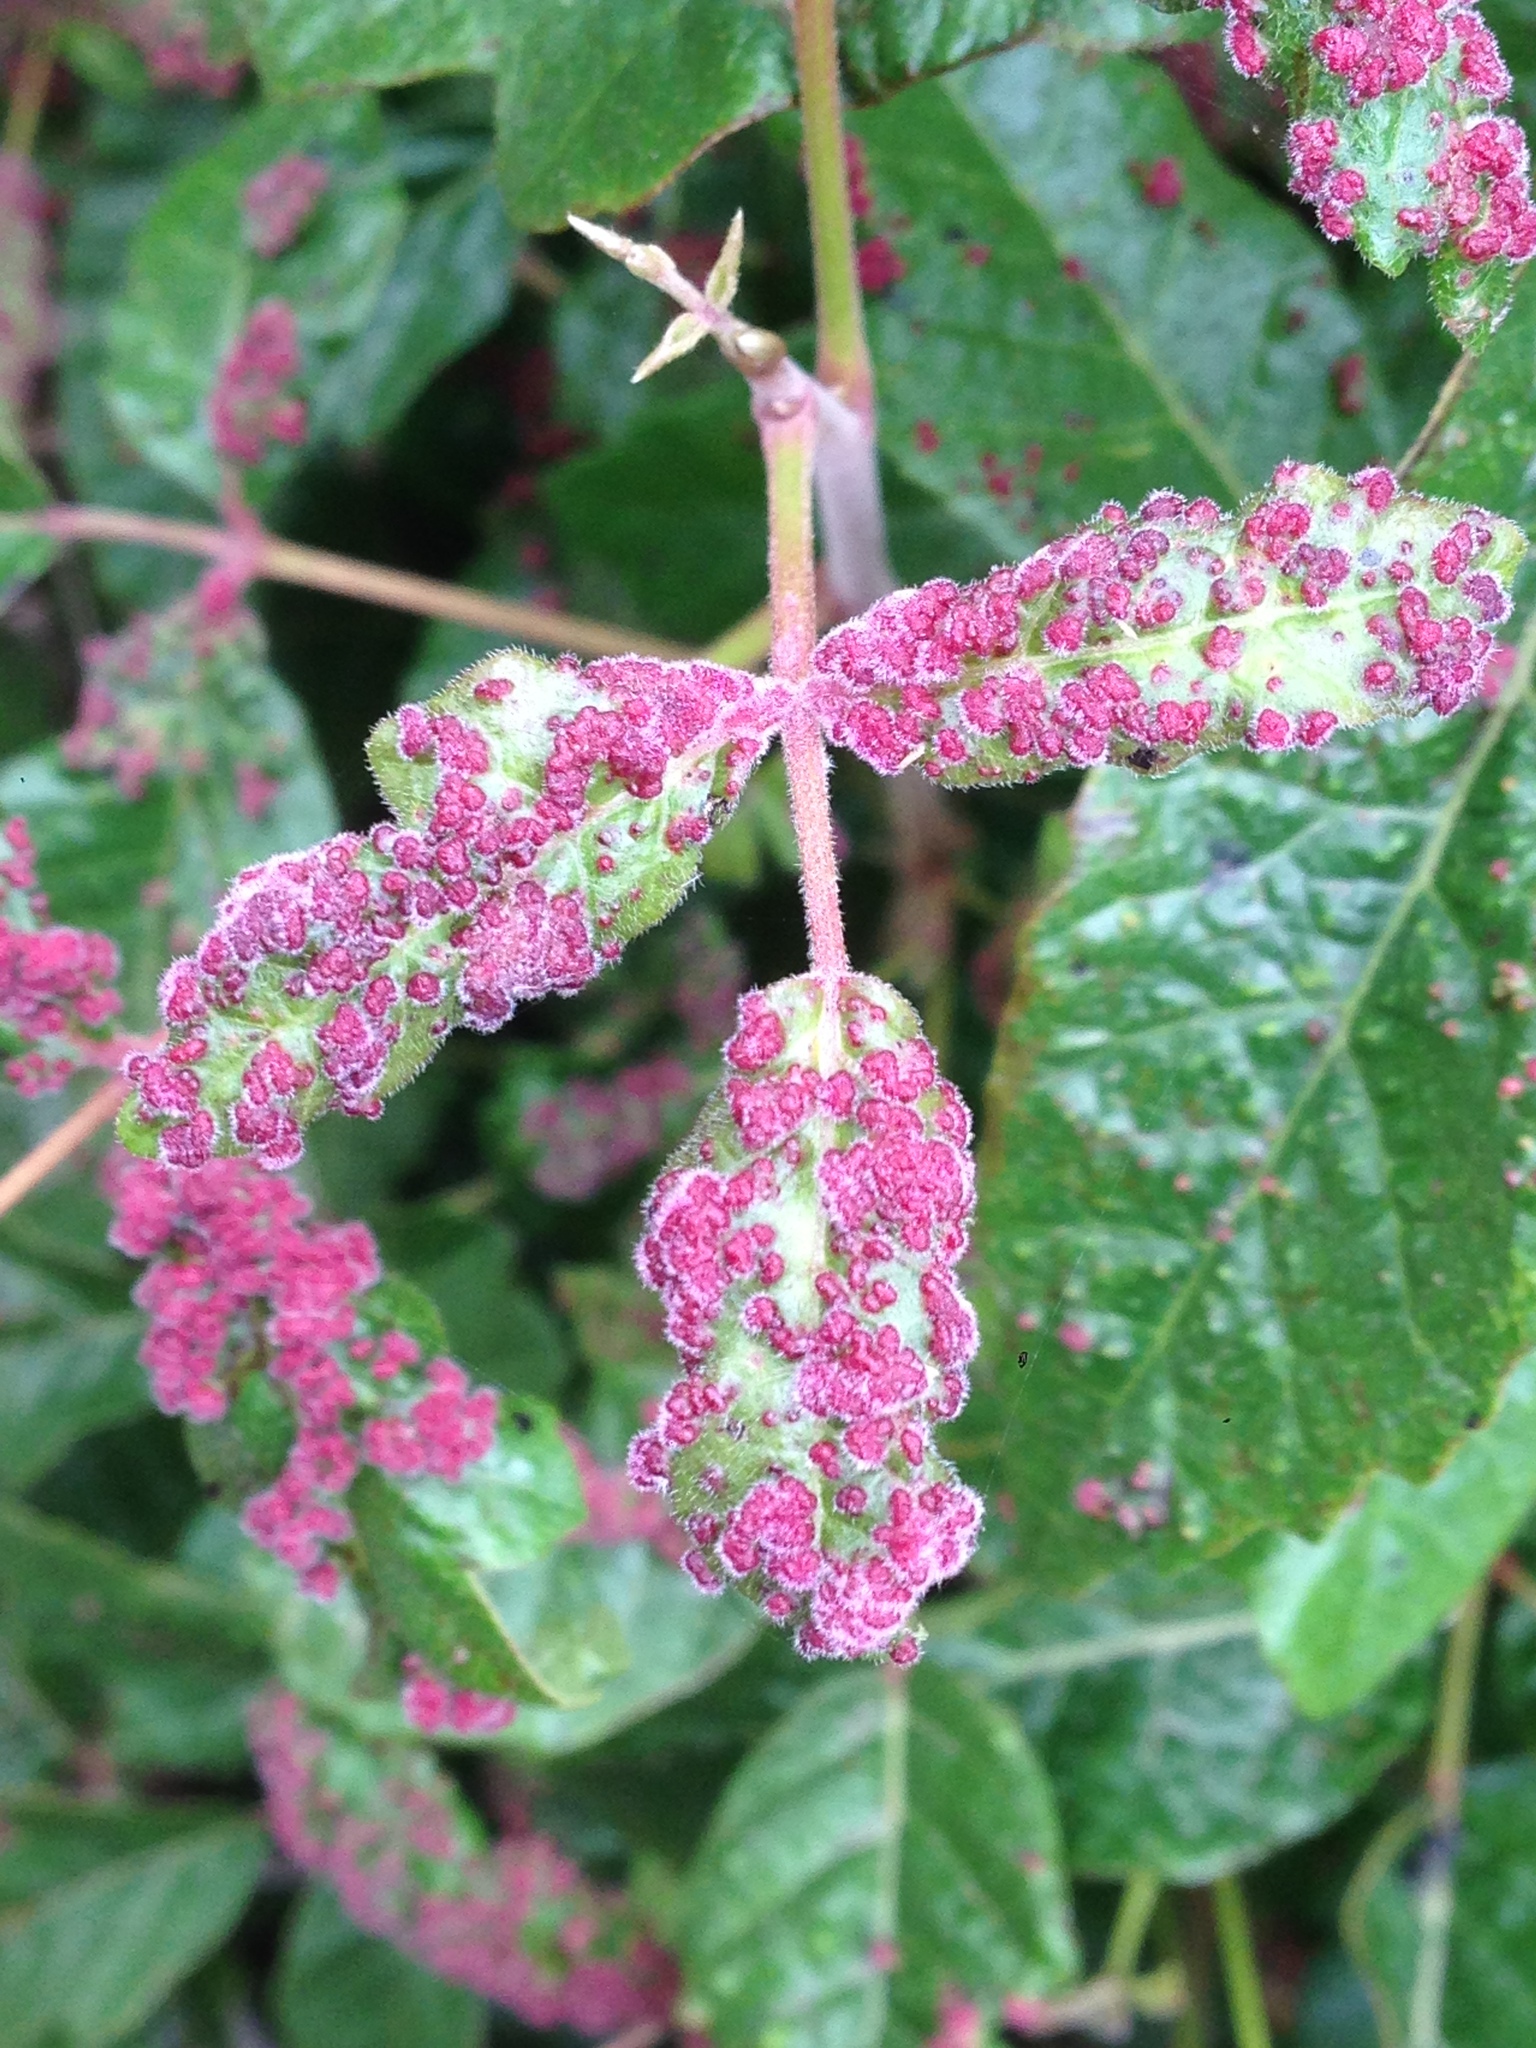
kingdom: Animalia
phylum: Arthropoda
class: Arachnida
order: Trombidiformes
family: Eriophyidae
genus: Aculops
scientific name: Aculops
